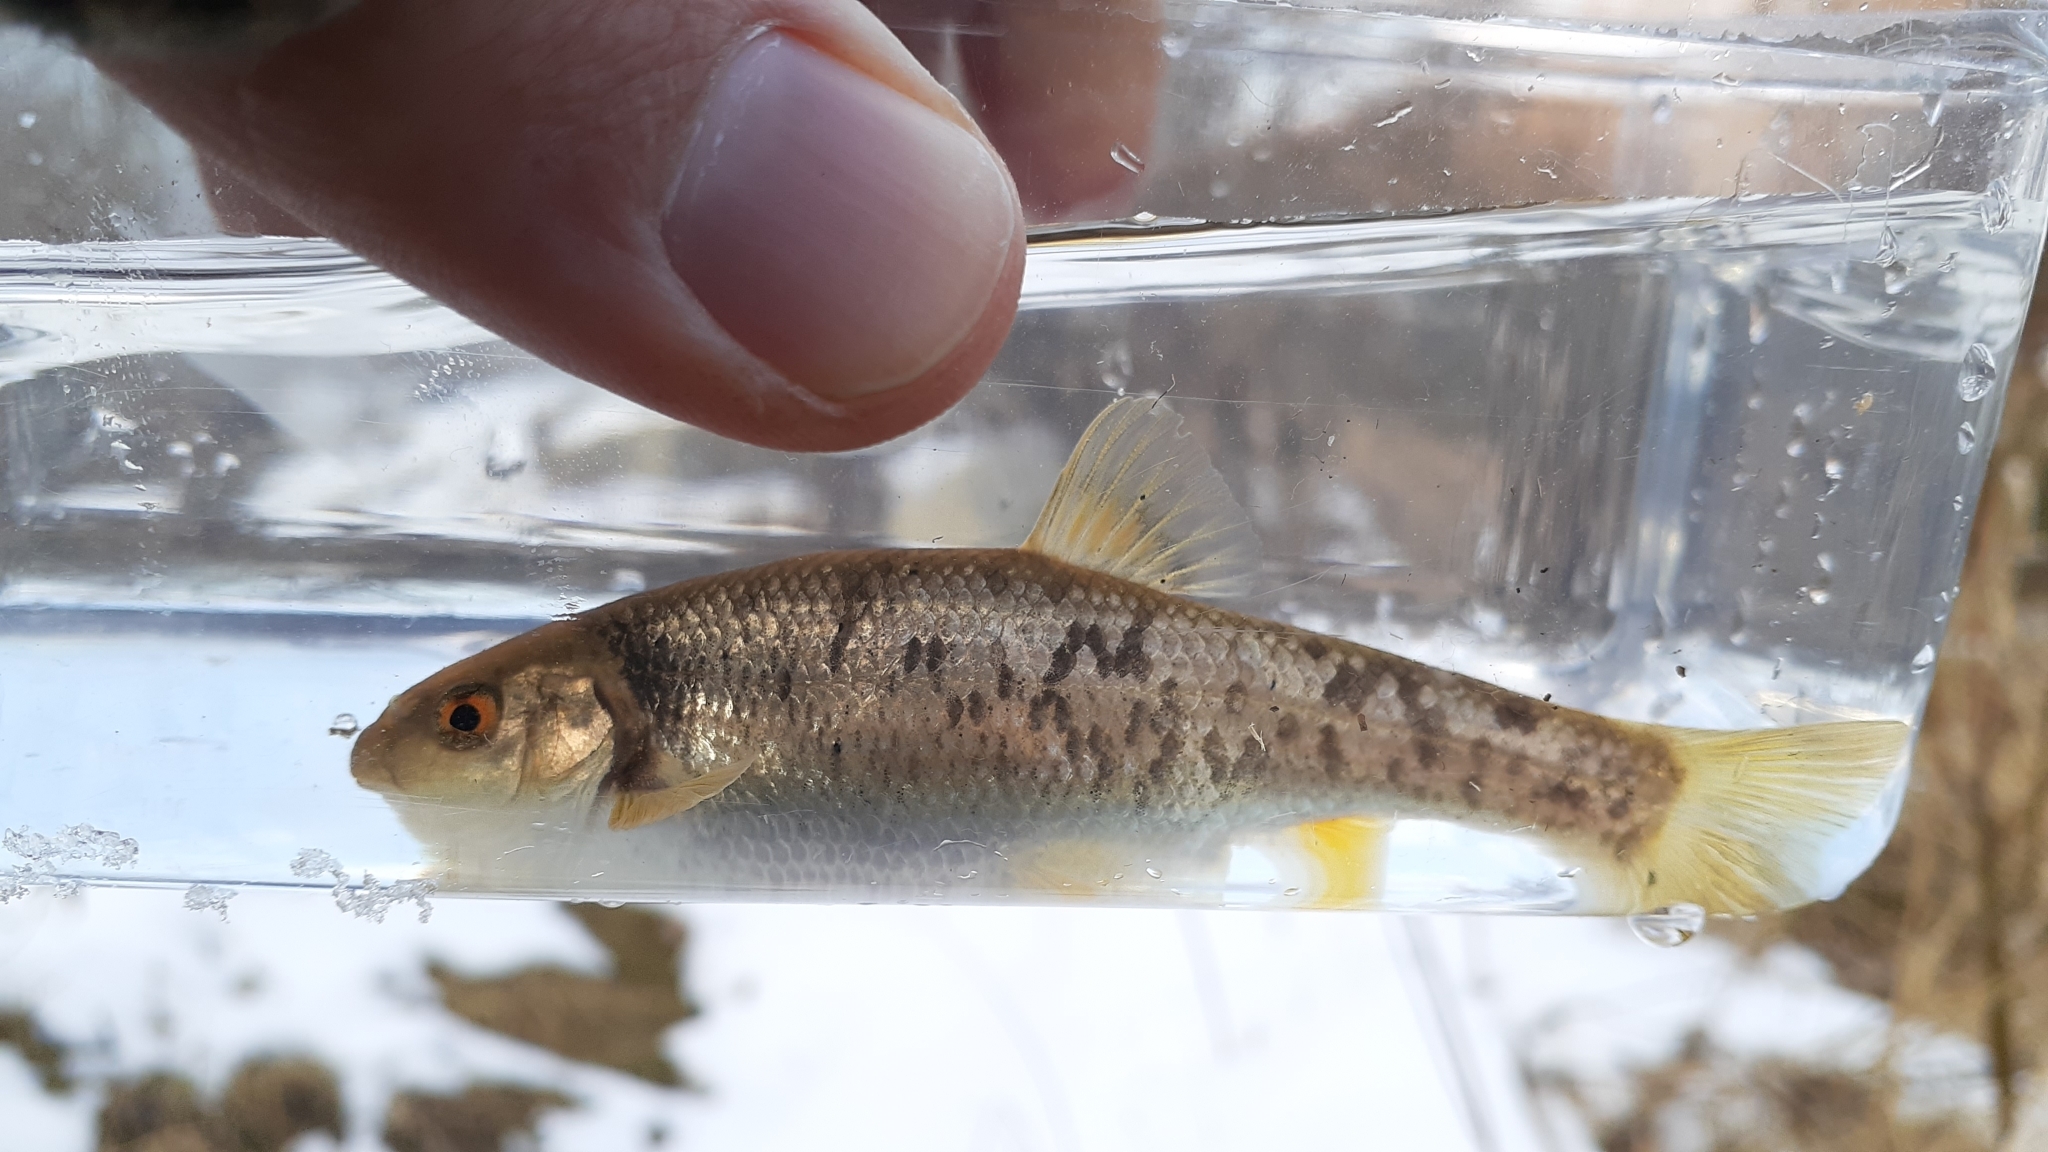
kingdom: Animalia
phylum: Chordata
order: Cypriniformes
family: Cyprinidae
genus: Campostoma
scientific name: Campostoma anomalum
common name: Central stoneroller
